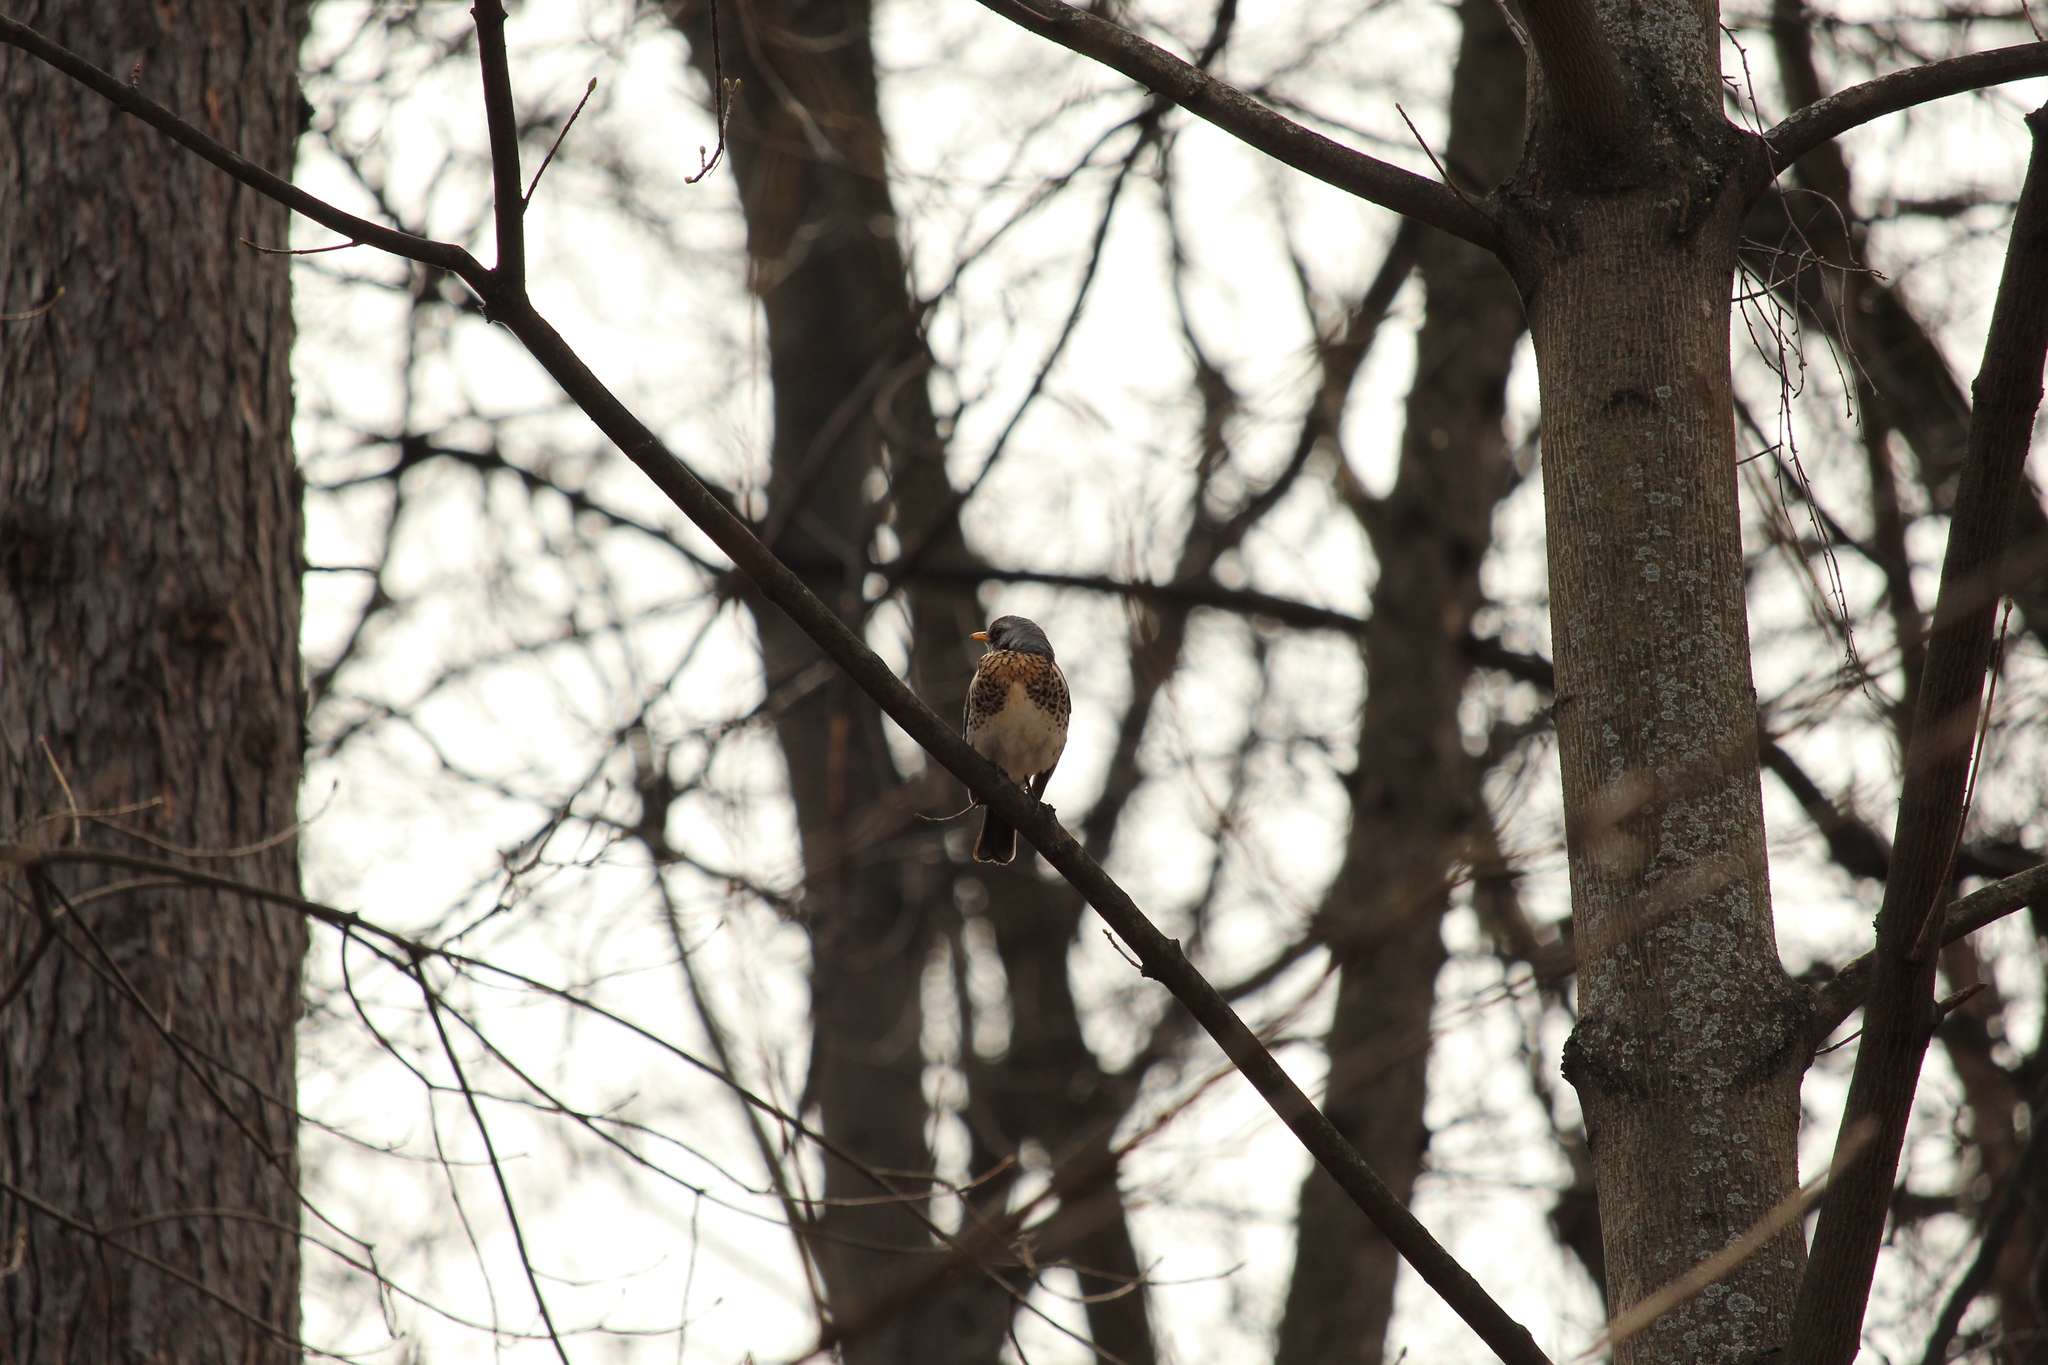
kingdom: Animalia
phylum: Chordata
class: Aves
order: Passeriformes
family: Turdidae
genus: Turdus
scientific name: Turdus pilaris
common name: Fieldfare
